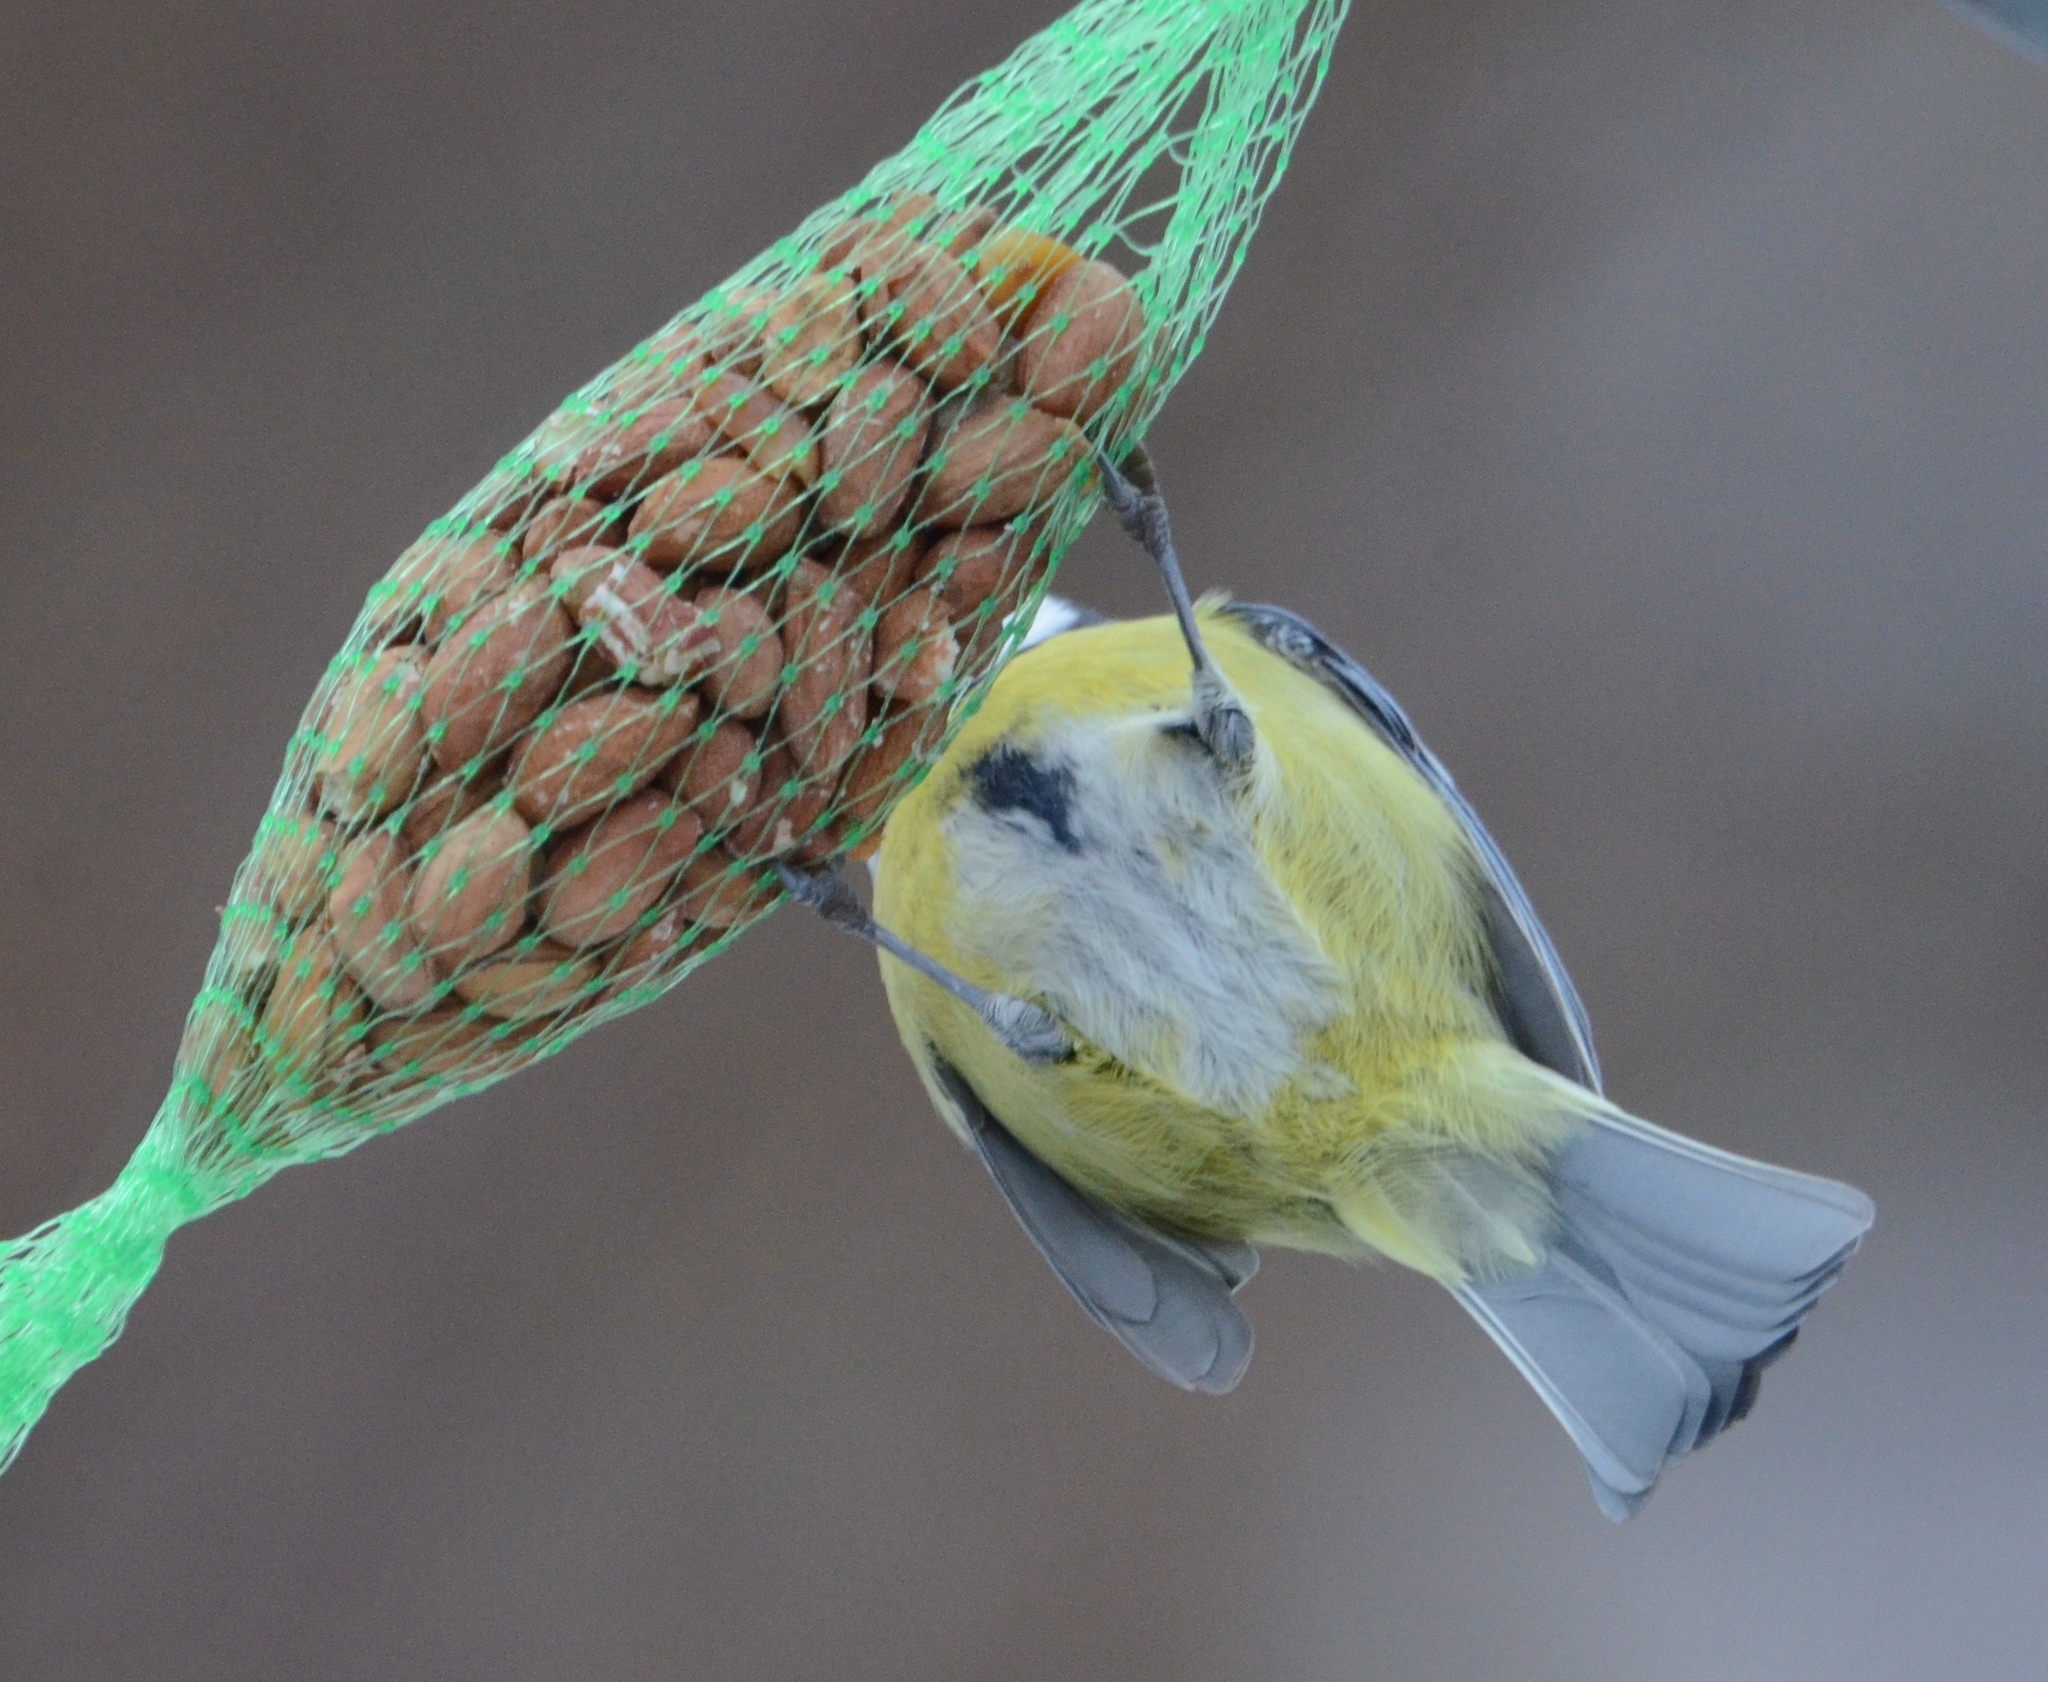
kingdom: Animalia
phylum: Chordata
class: Aves
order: Passeriformes
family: Paridae
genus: Cyanistes
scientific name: Cyanistes caeruleus
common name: Eurasian blue tit
